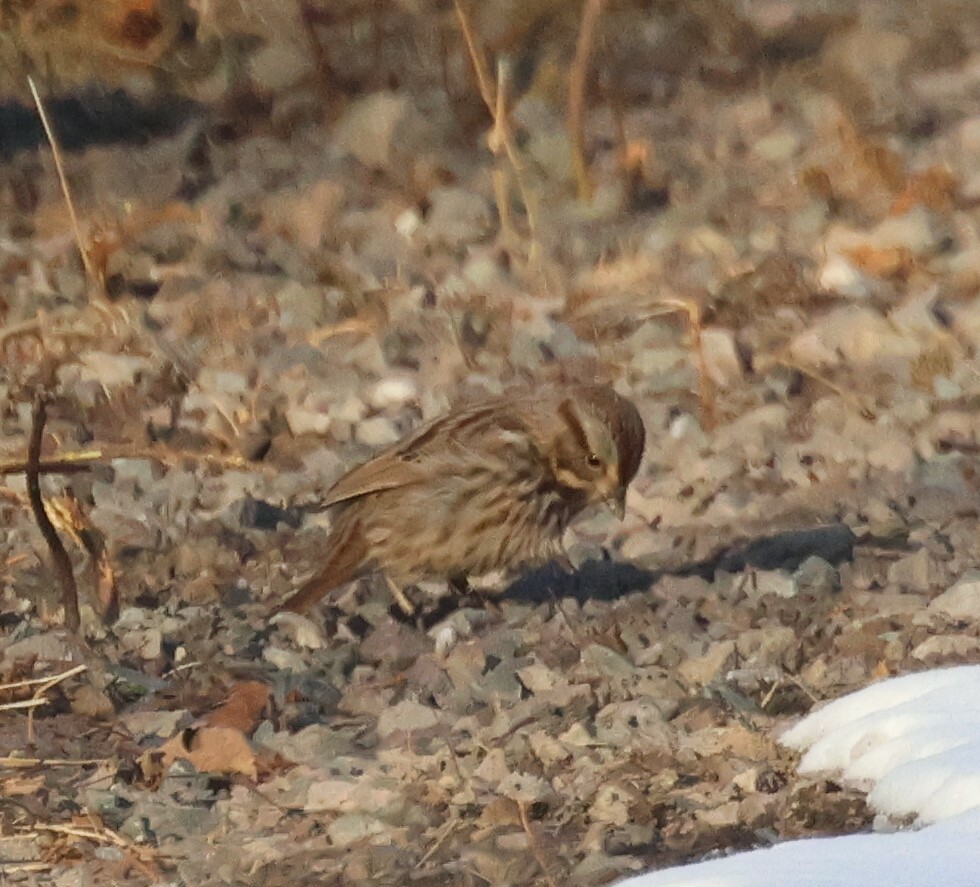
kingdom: Animalia
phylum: Chordata
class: Aves
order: Passeriformes
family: Passerellidae
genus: Melospiza
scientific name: Melospiza melodia
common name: Song sparrow
